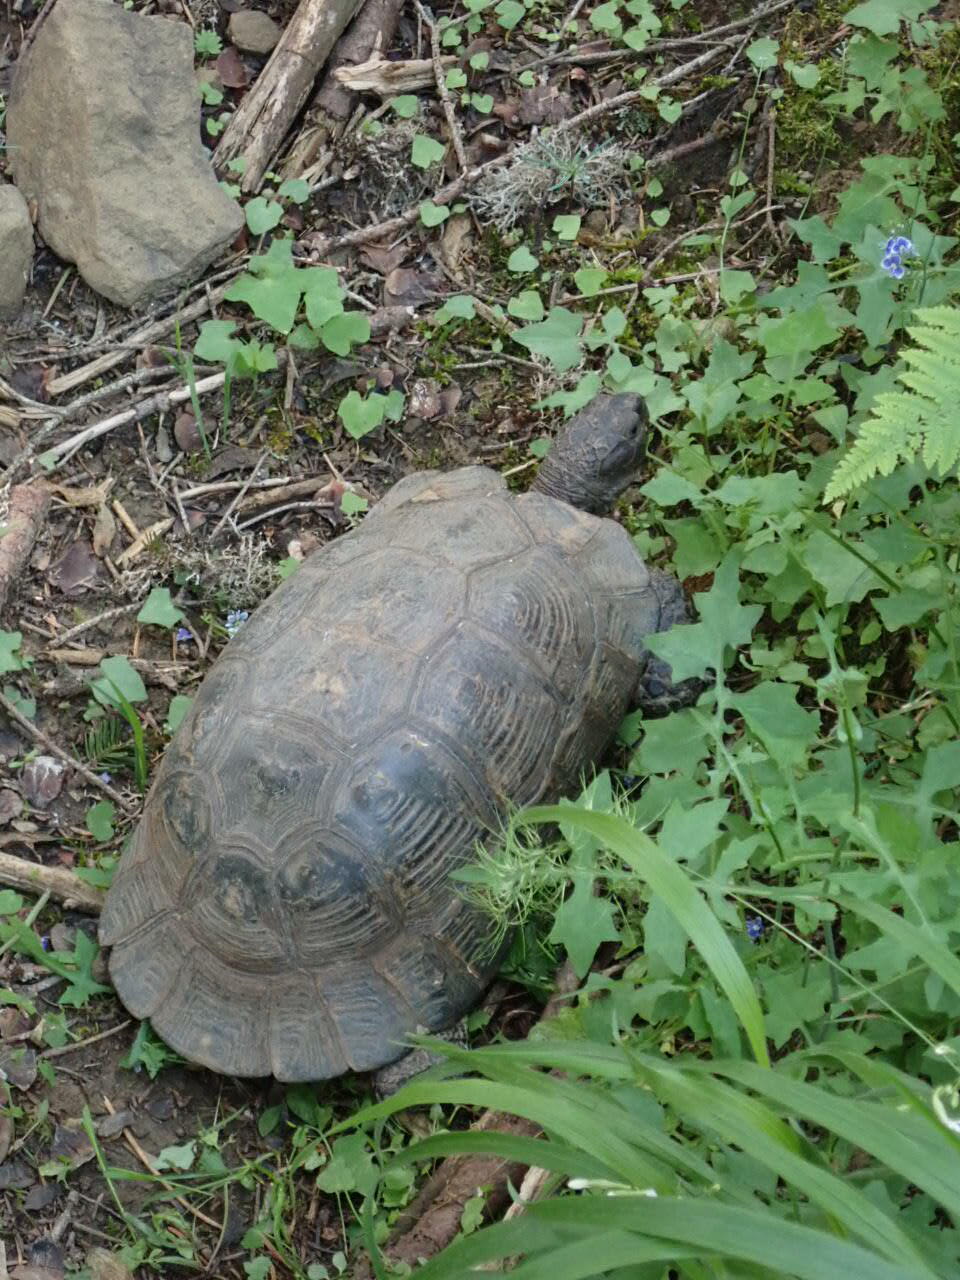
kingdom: Animalia
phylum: Chordata
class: Testudines
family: Testudinidae
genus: Testudo
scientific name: Testudo marginata
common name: Marginated tortoise
